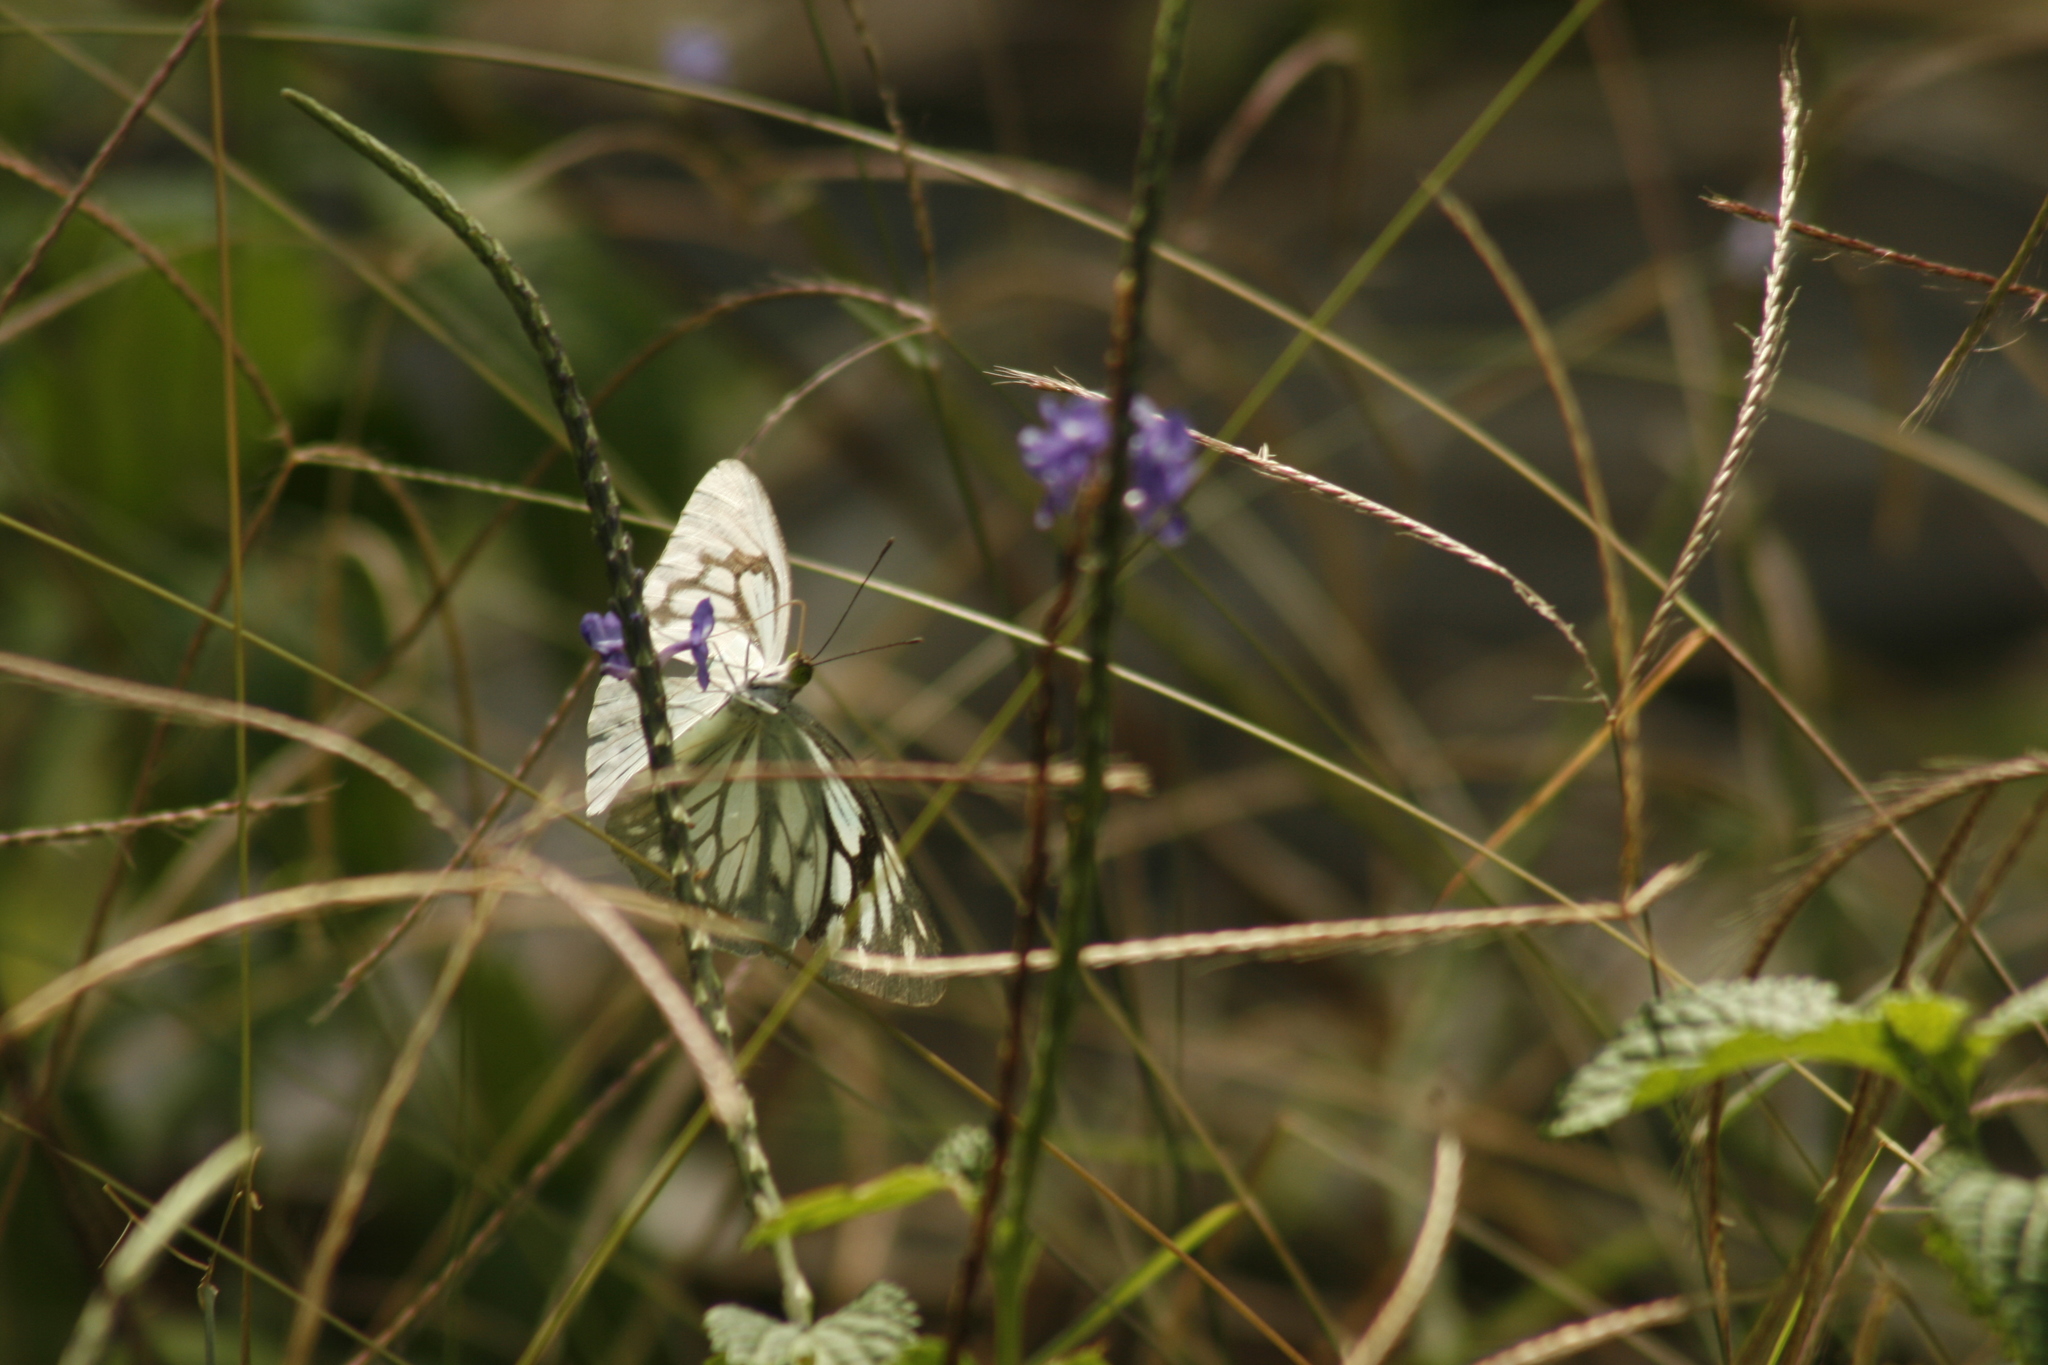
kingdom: Animalia
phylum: Arthropoda
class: Insecta
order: Lepidoptera
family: Pieridae
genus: Pareronia
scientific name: Pareronia hippia
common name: Indian wanderer
